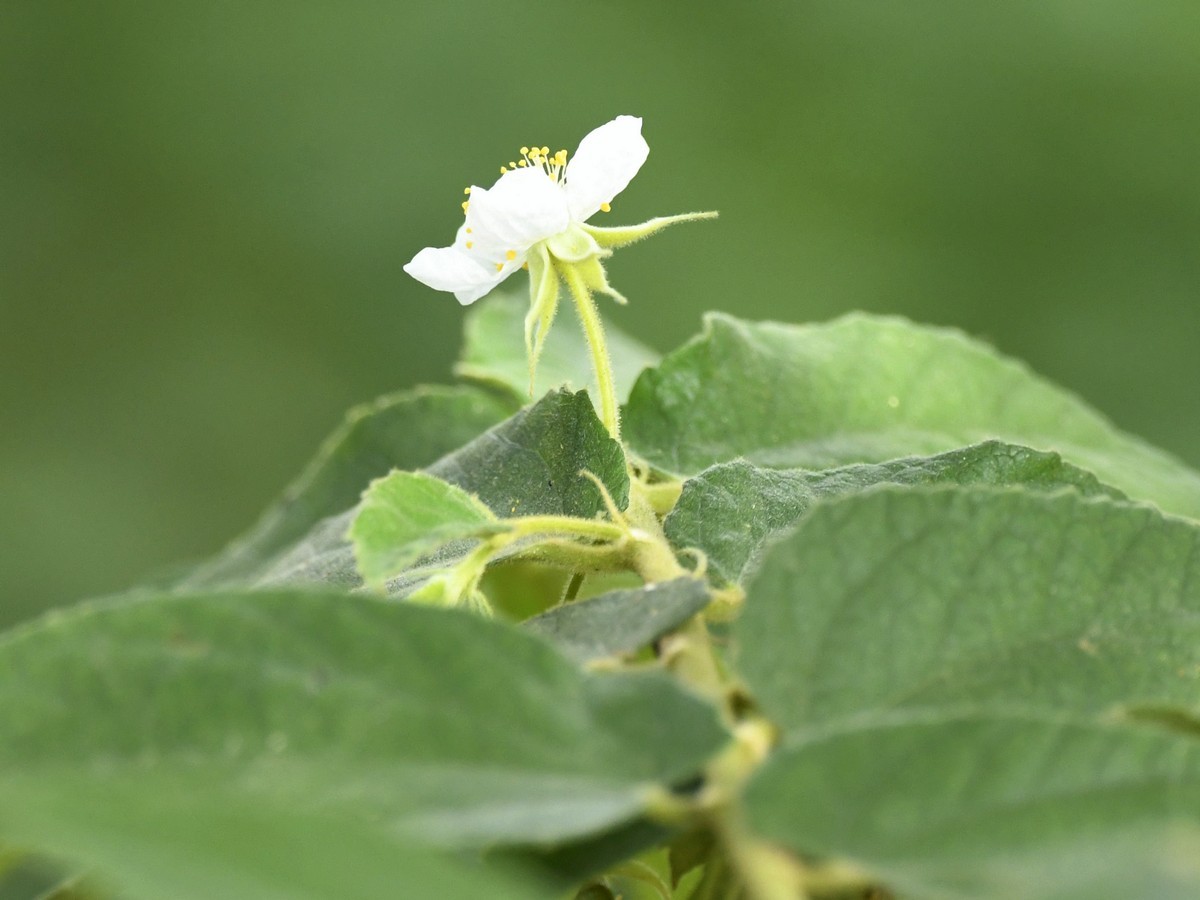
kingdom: Plantae
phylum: Tracheophyta
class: Magnoliopsida
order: Malvales
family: Muntingiaceae
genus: Muntingia
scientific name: Muntingia calabura
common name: Strawberrytree
